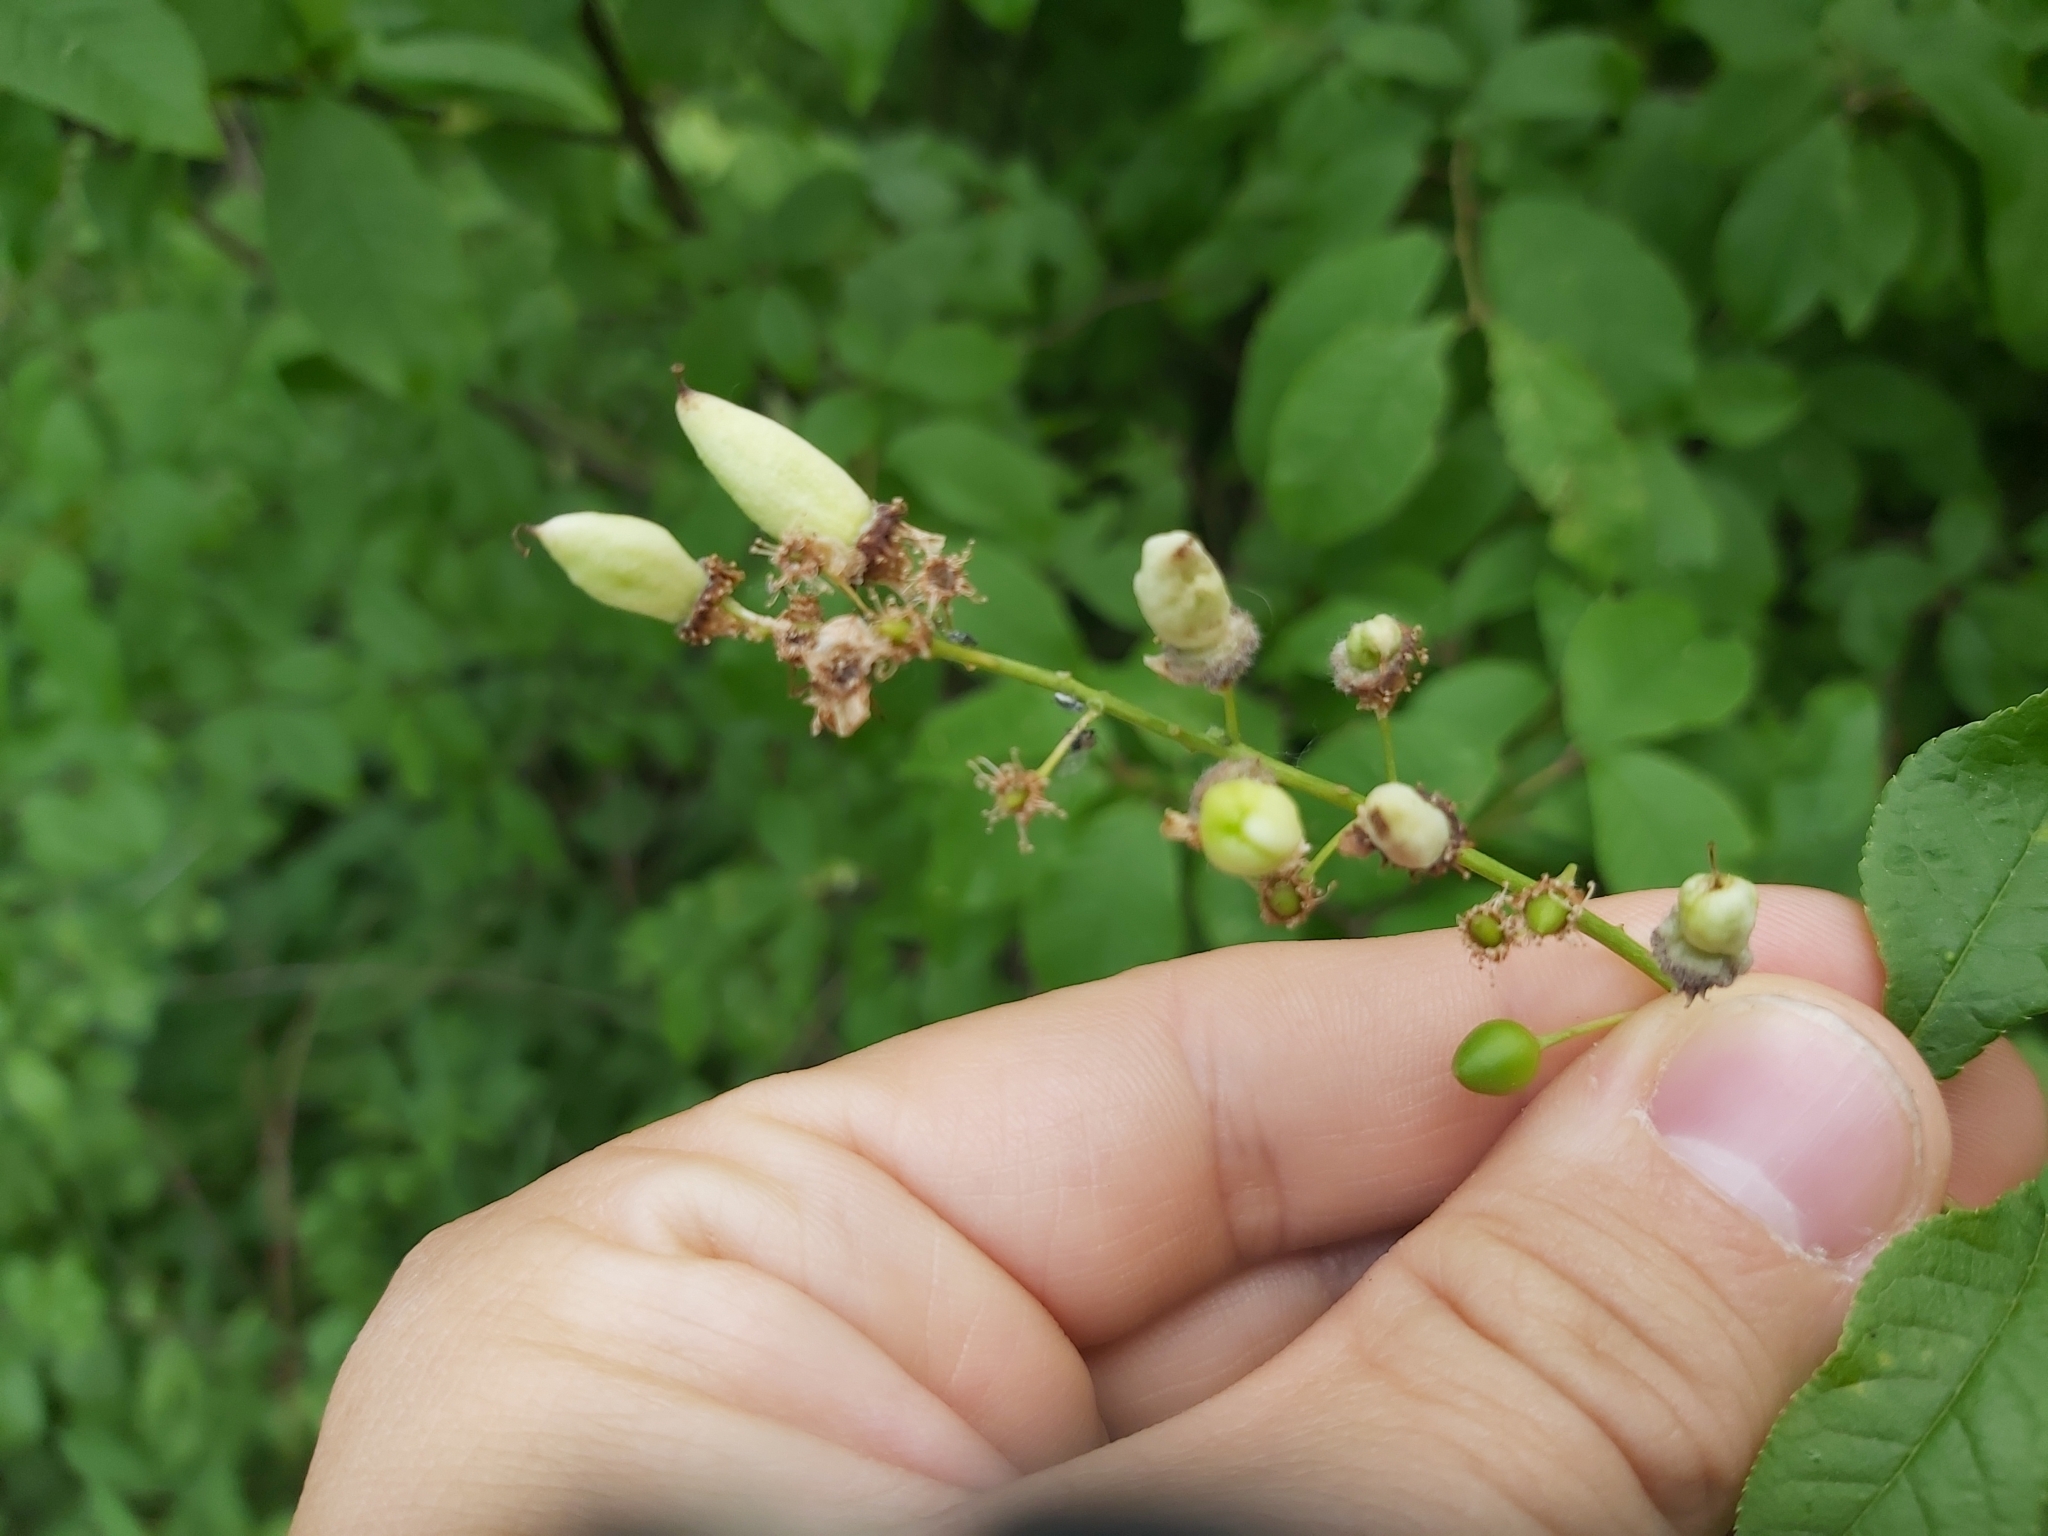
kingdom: Fungi
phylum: Ascomycota
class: Taphrinomycetes
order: Taphrinales
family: Taphrinaceae
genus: Taphrina
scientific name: Taphrina padi
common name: Bird cherry pocket
